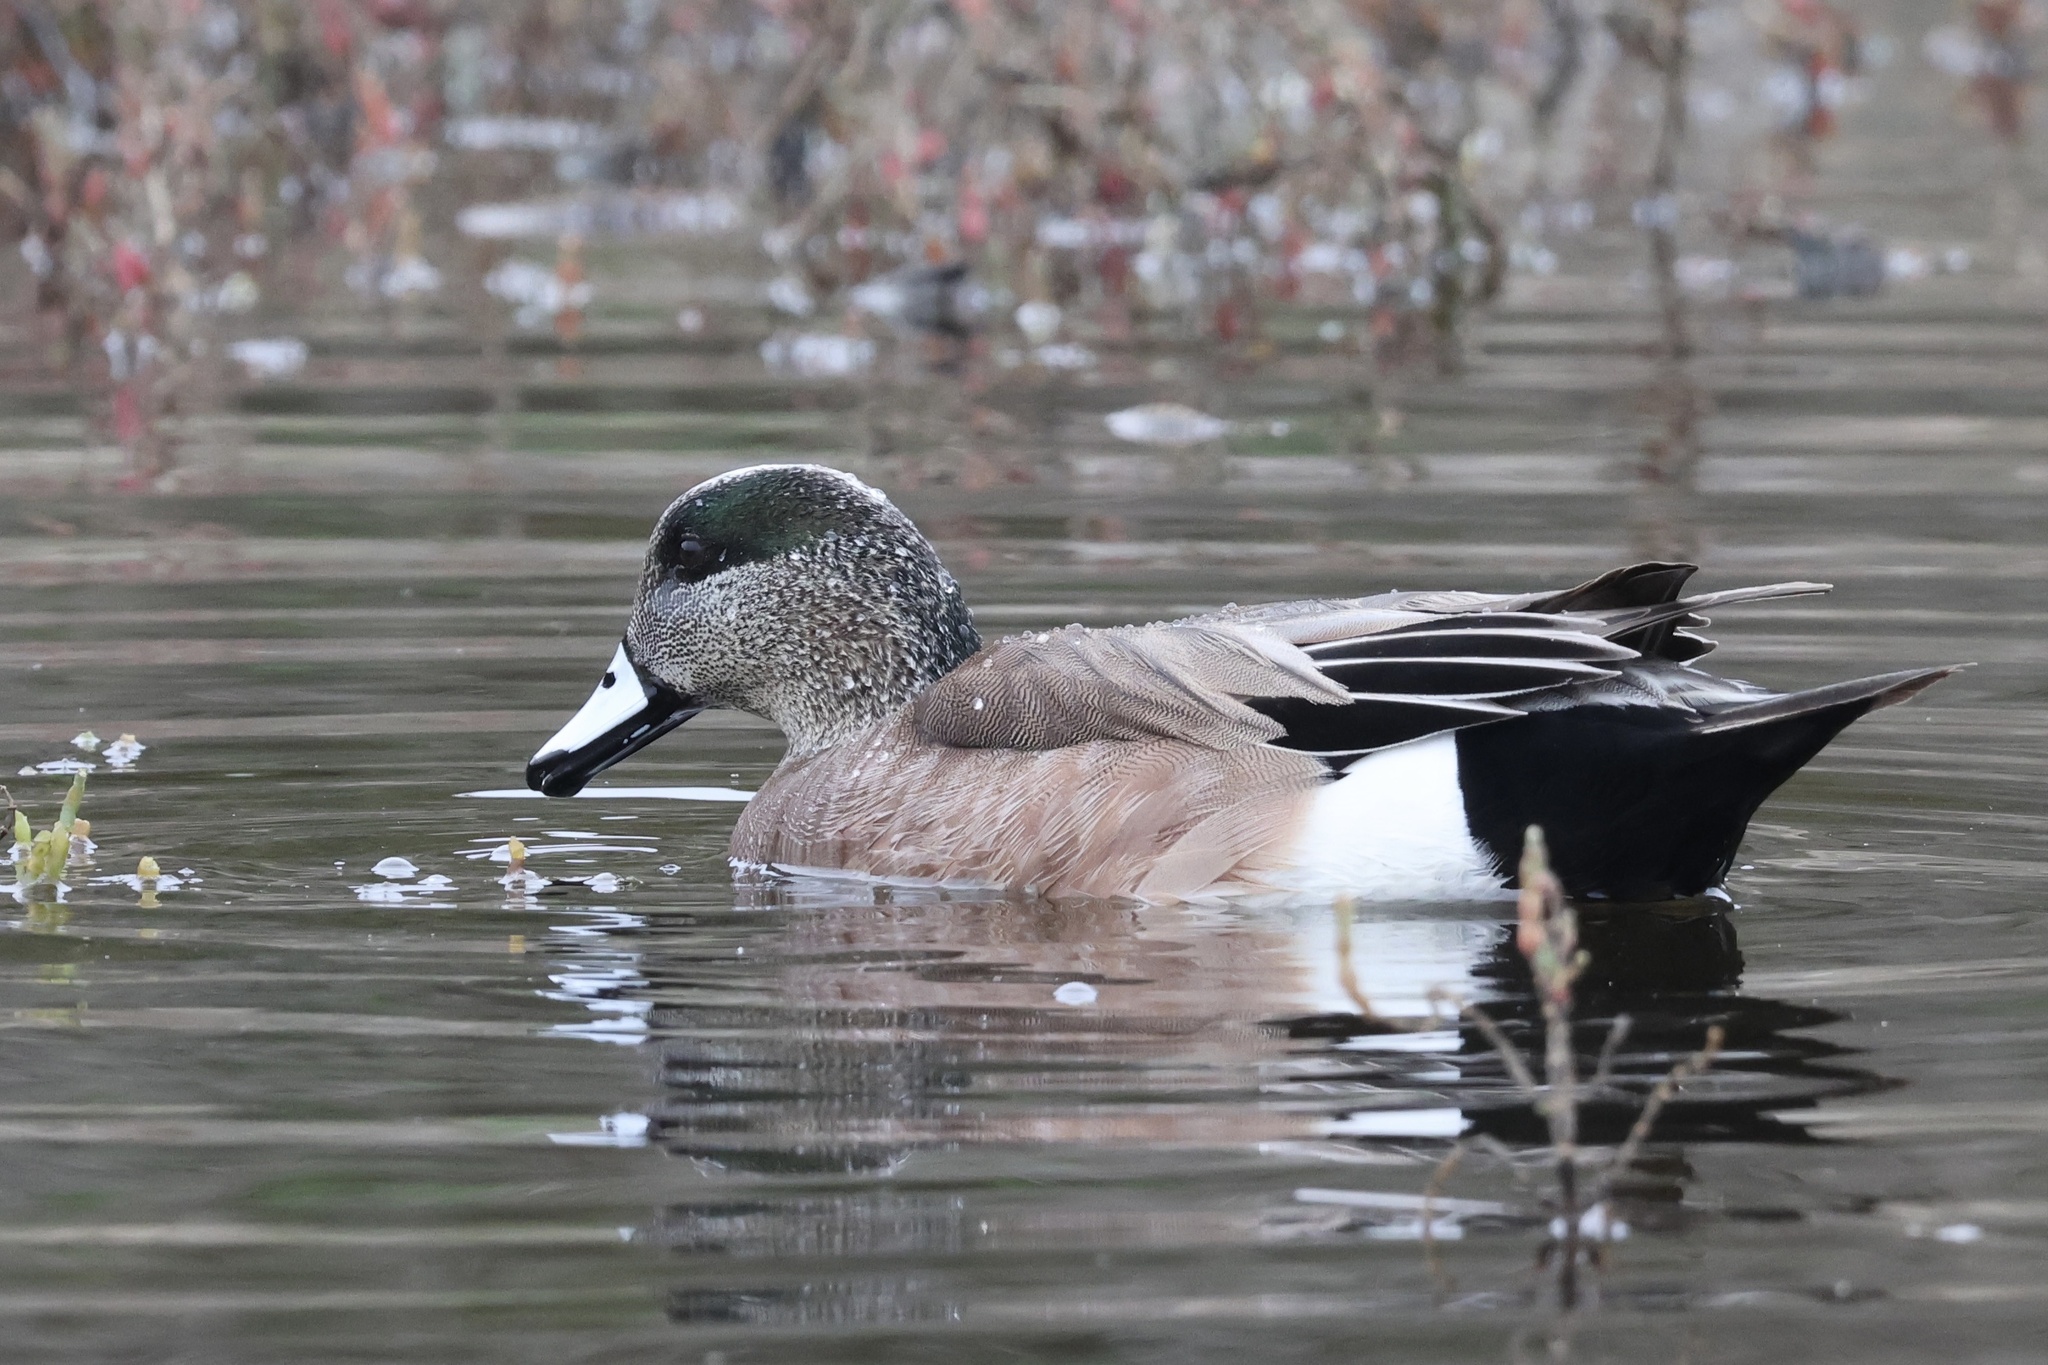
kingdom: Animalia
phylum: Chordata
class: Aves
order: Anseriformes
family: Anatidae
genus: Mareca
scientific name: Mareca americana
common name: American wigeon
